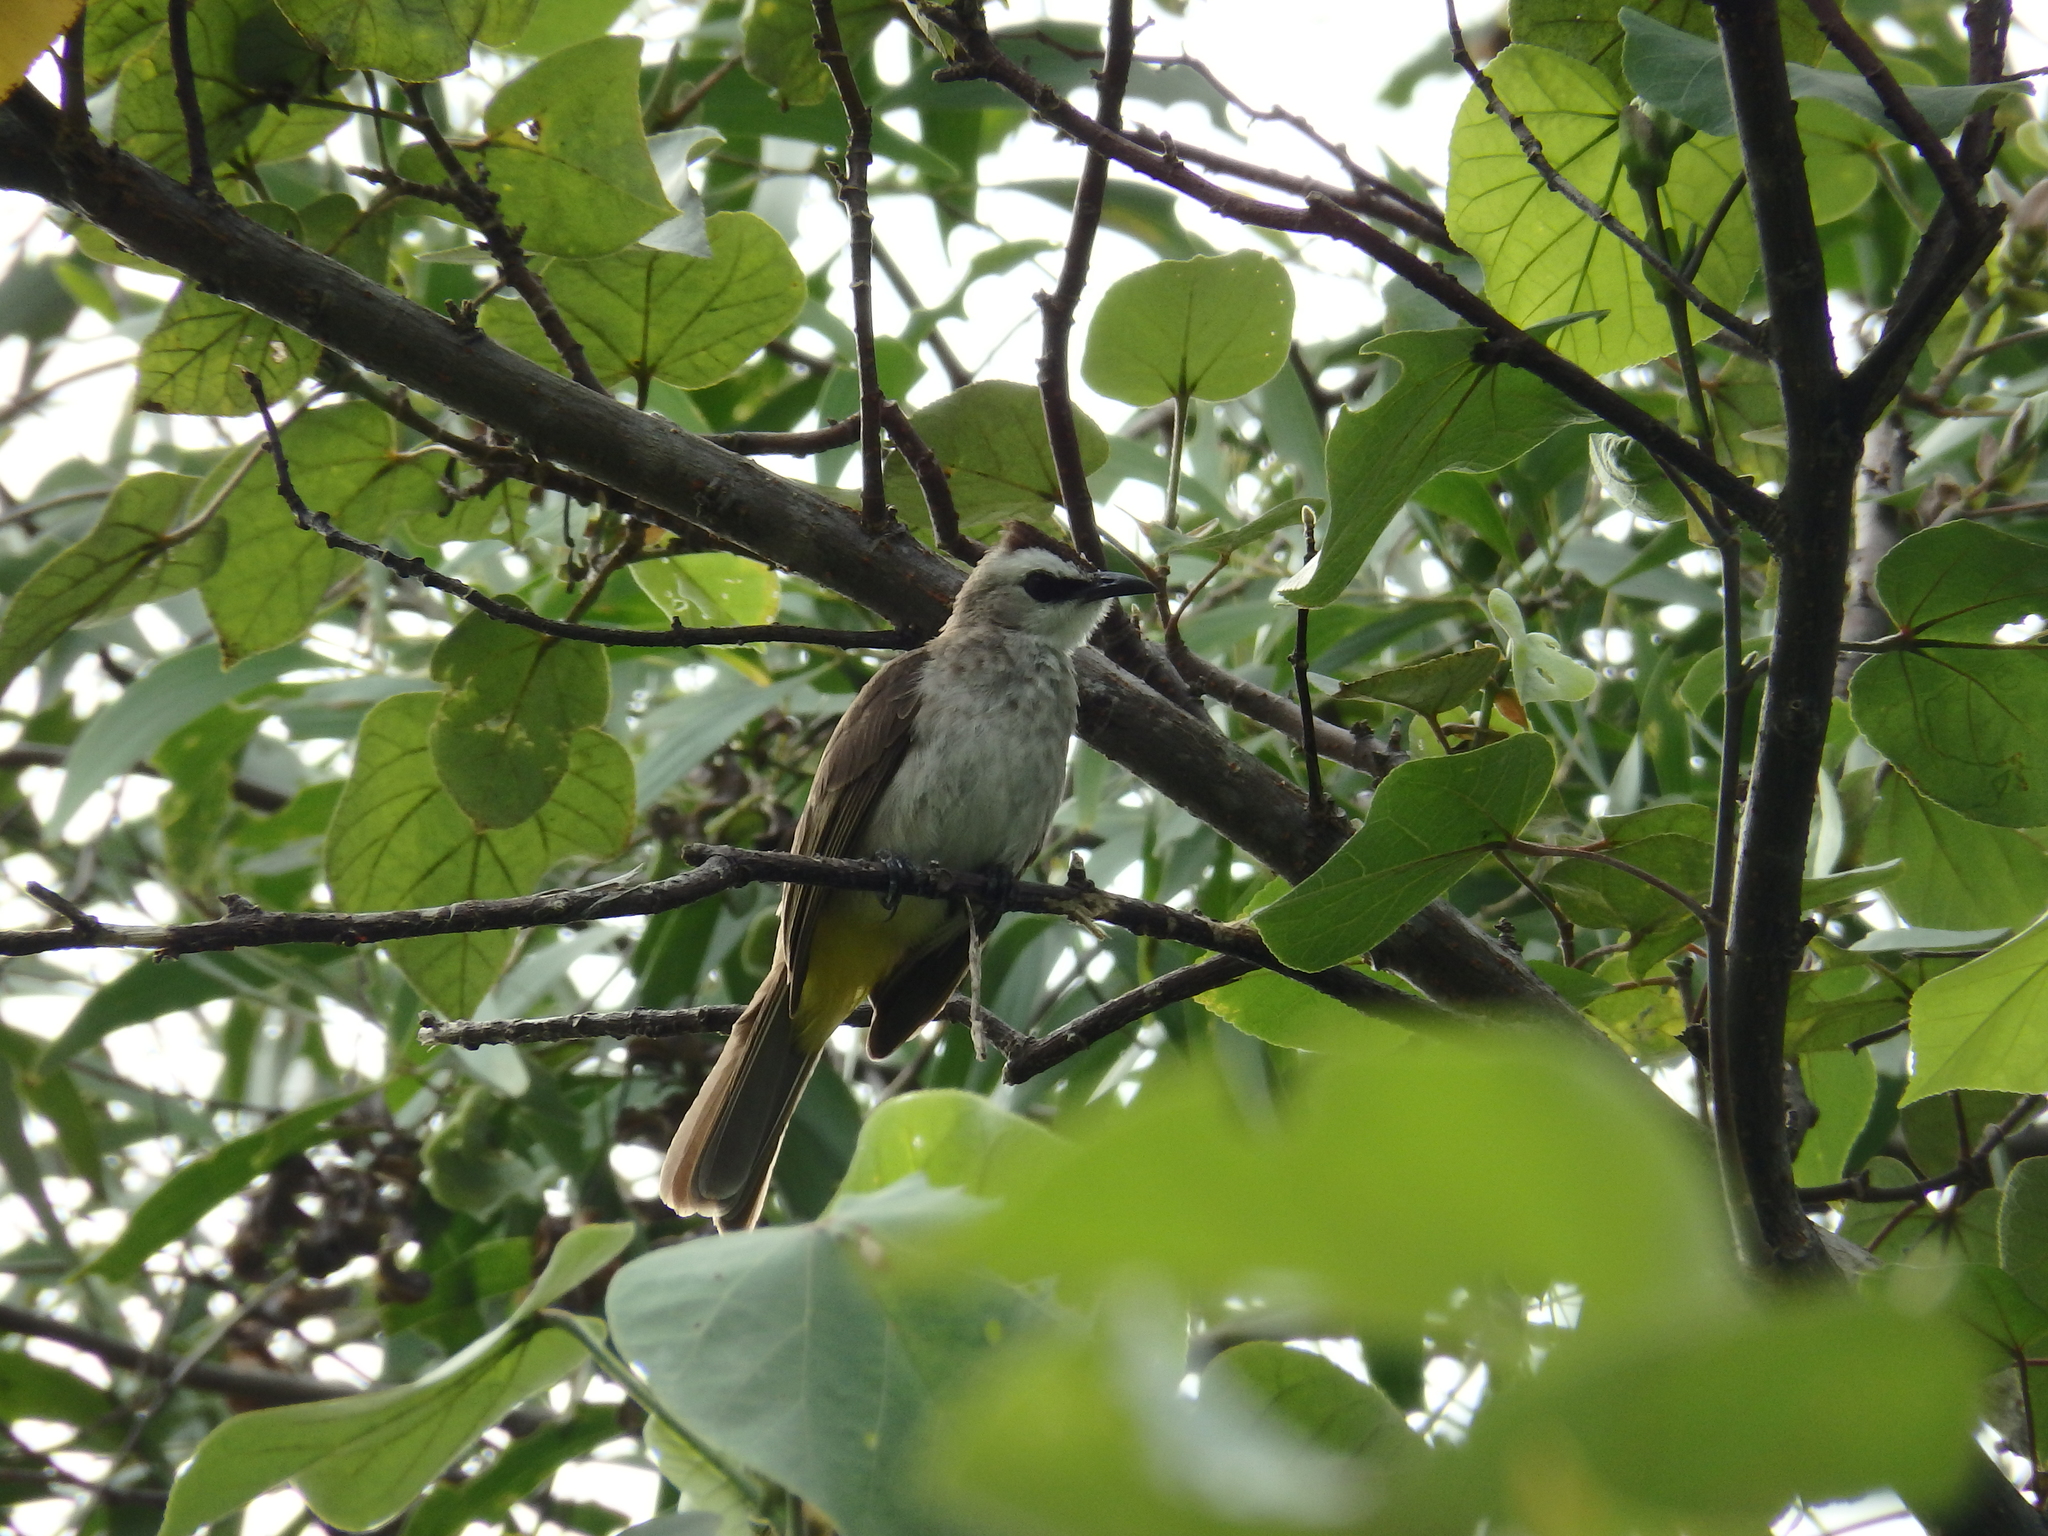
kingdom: Animalia
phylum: Chordata
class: Aves
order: Passeriformes
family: Pycnonotidae
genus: Pycnonotus
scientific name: Pycnonotus goiavier
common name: Yellow-vented bulbul
